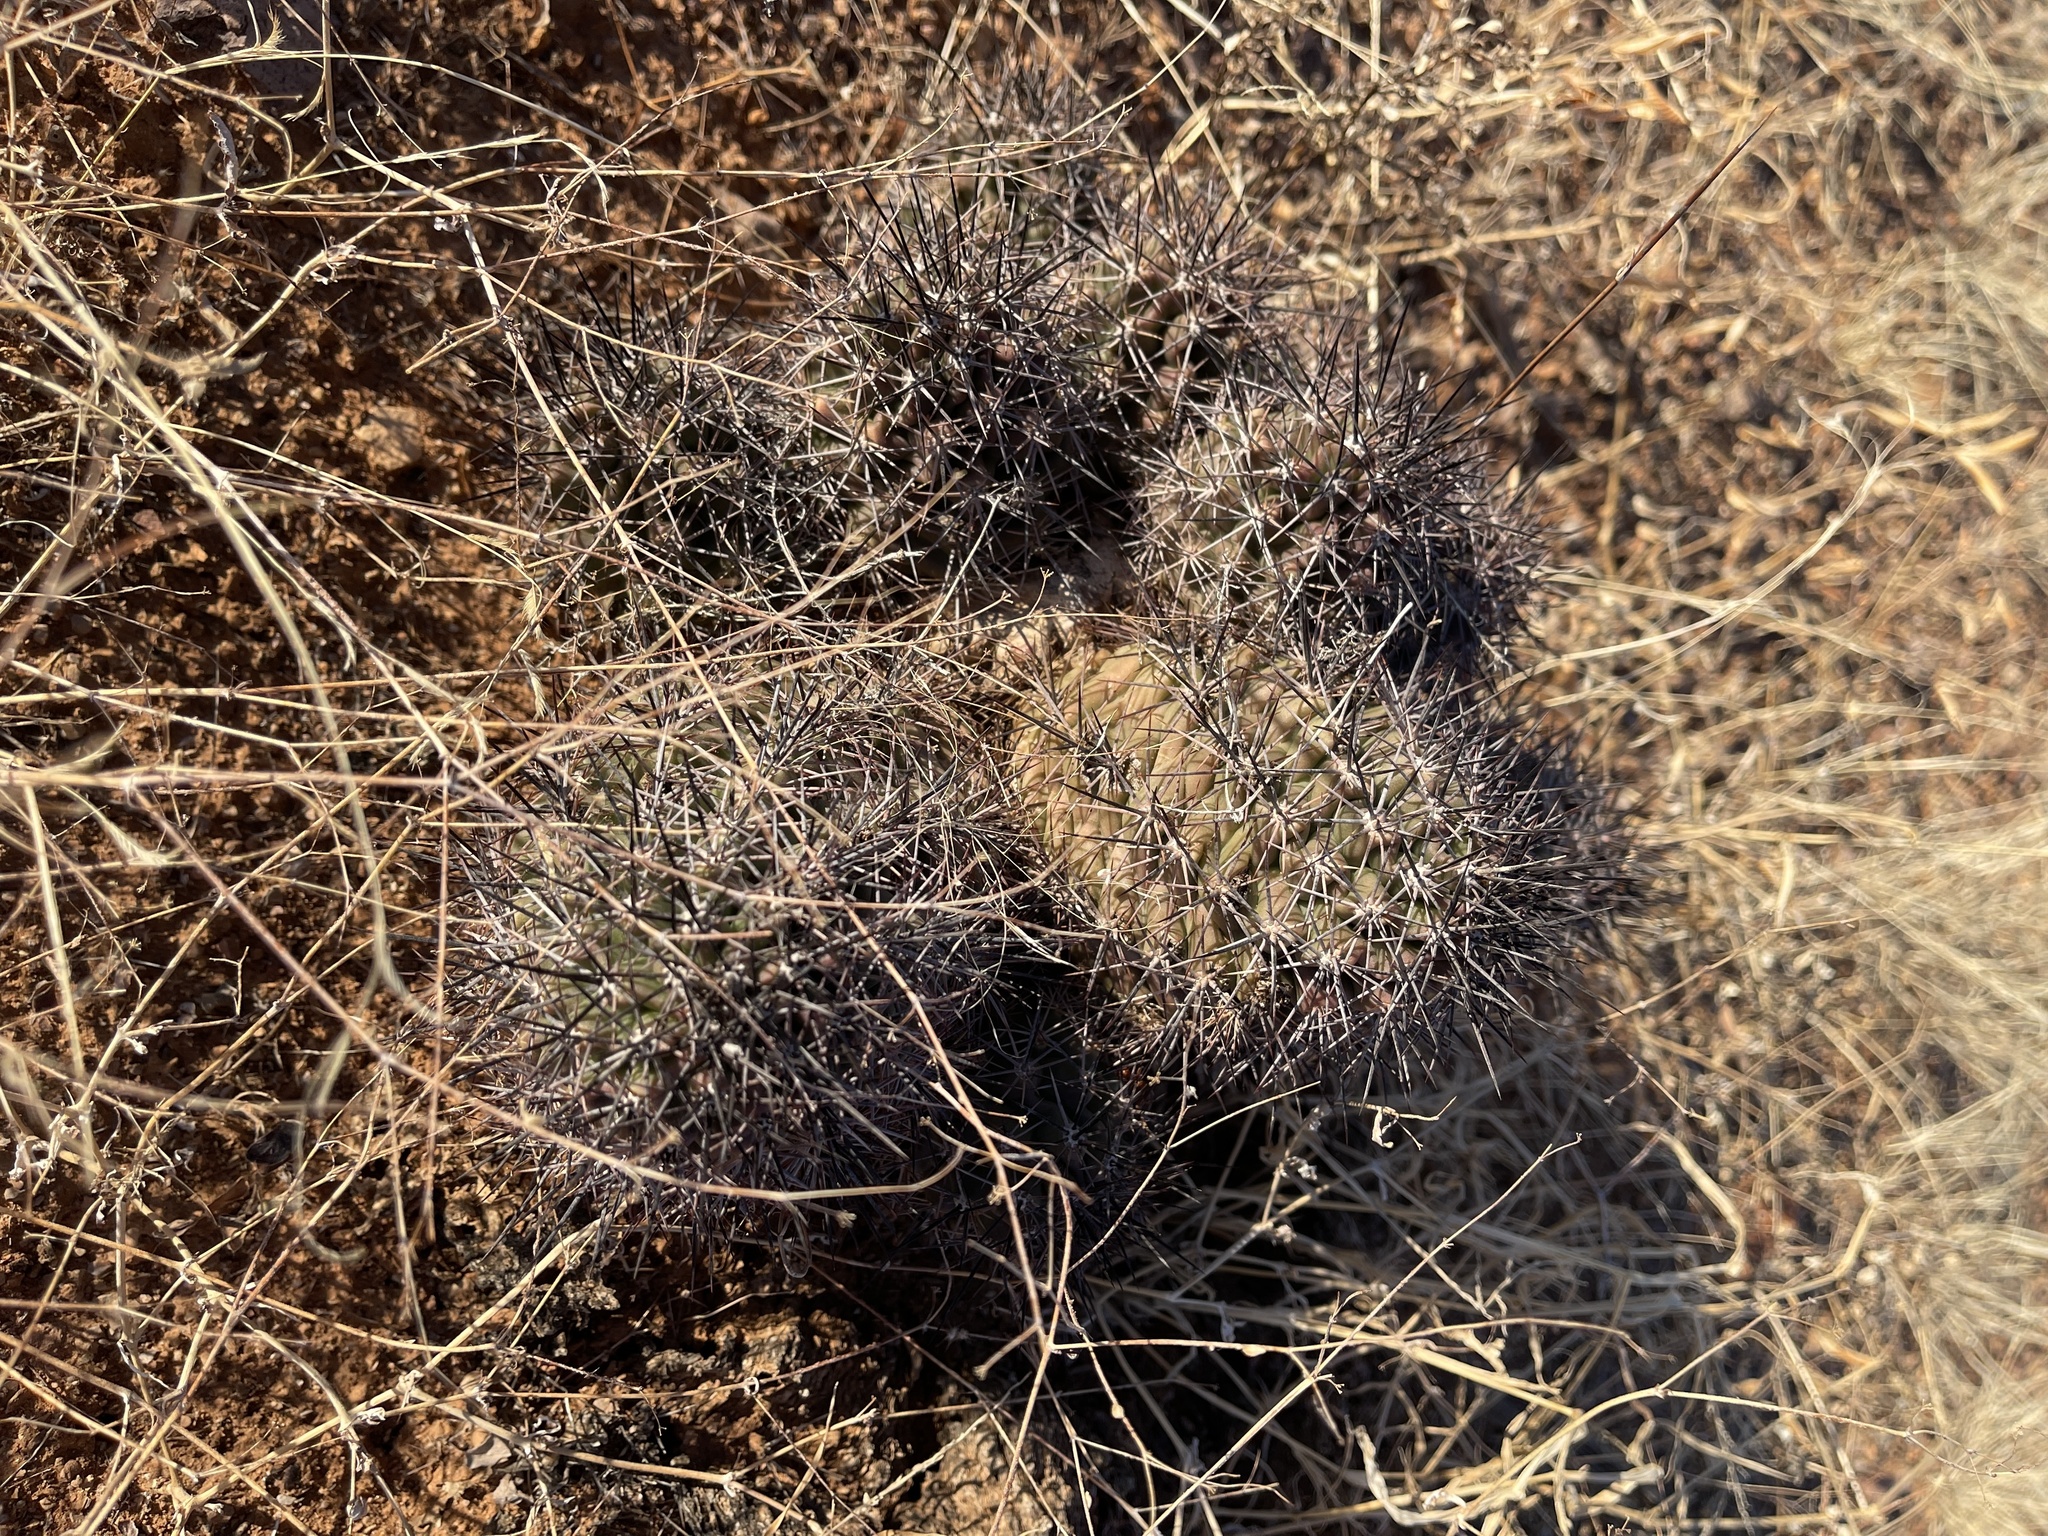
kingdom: Plantae
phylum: Tracheophyta
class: Magnoliopsida
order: Caryophyllales
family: Cactaceae
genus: Echinocereus
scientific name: Echinocereus coccineus
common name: Scarlet hedgehog cactus
